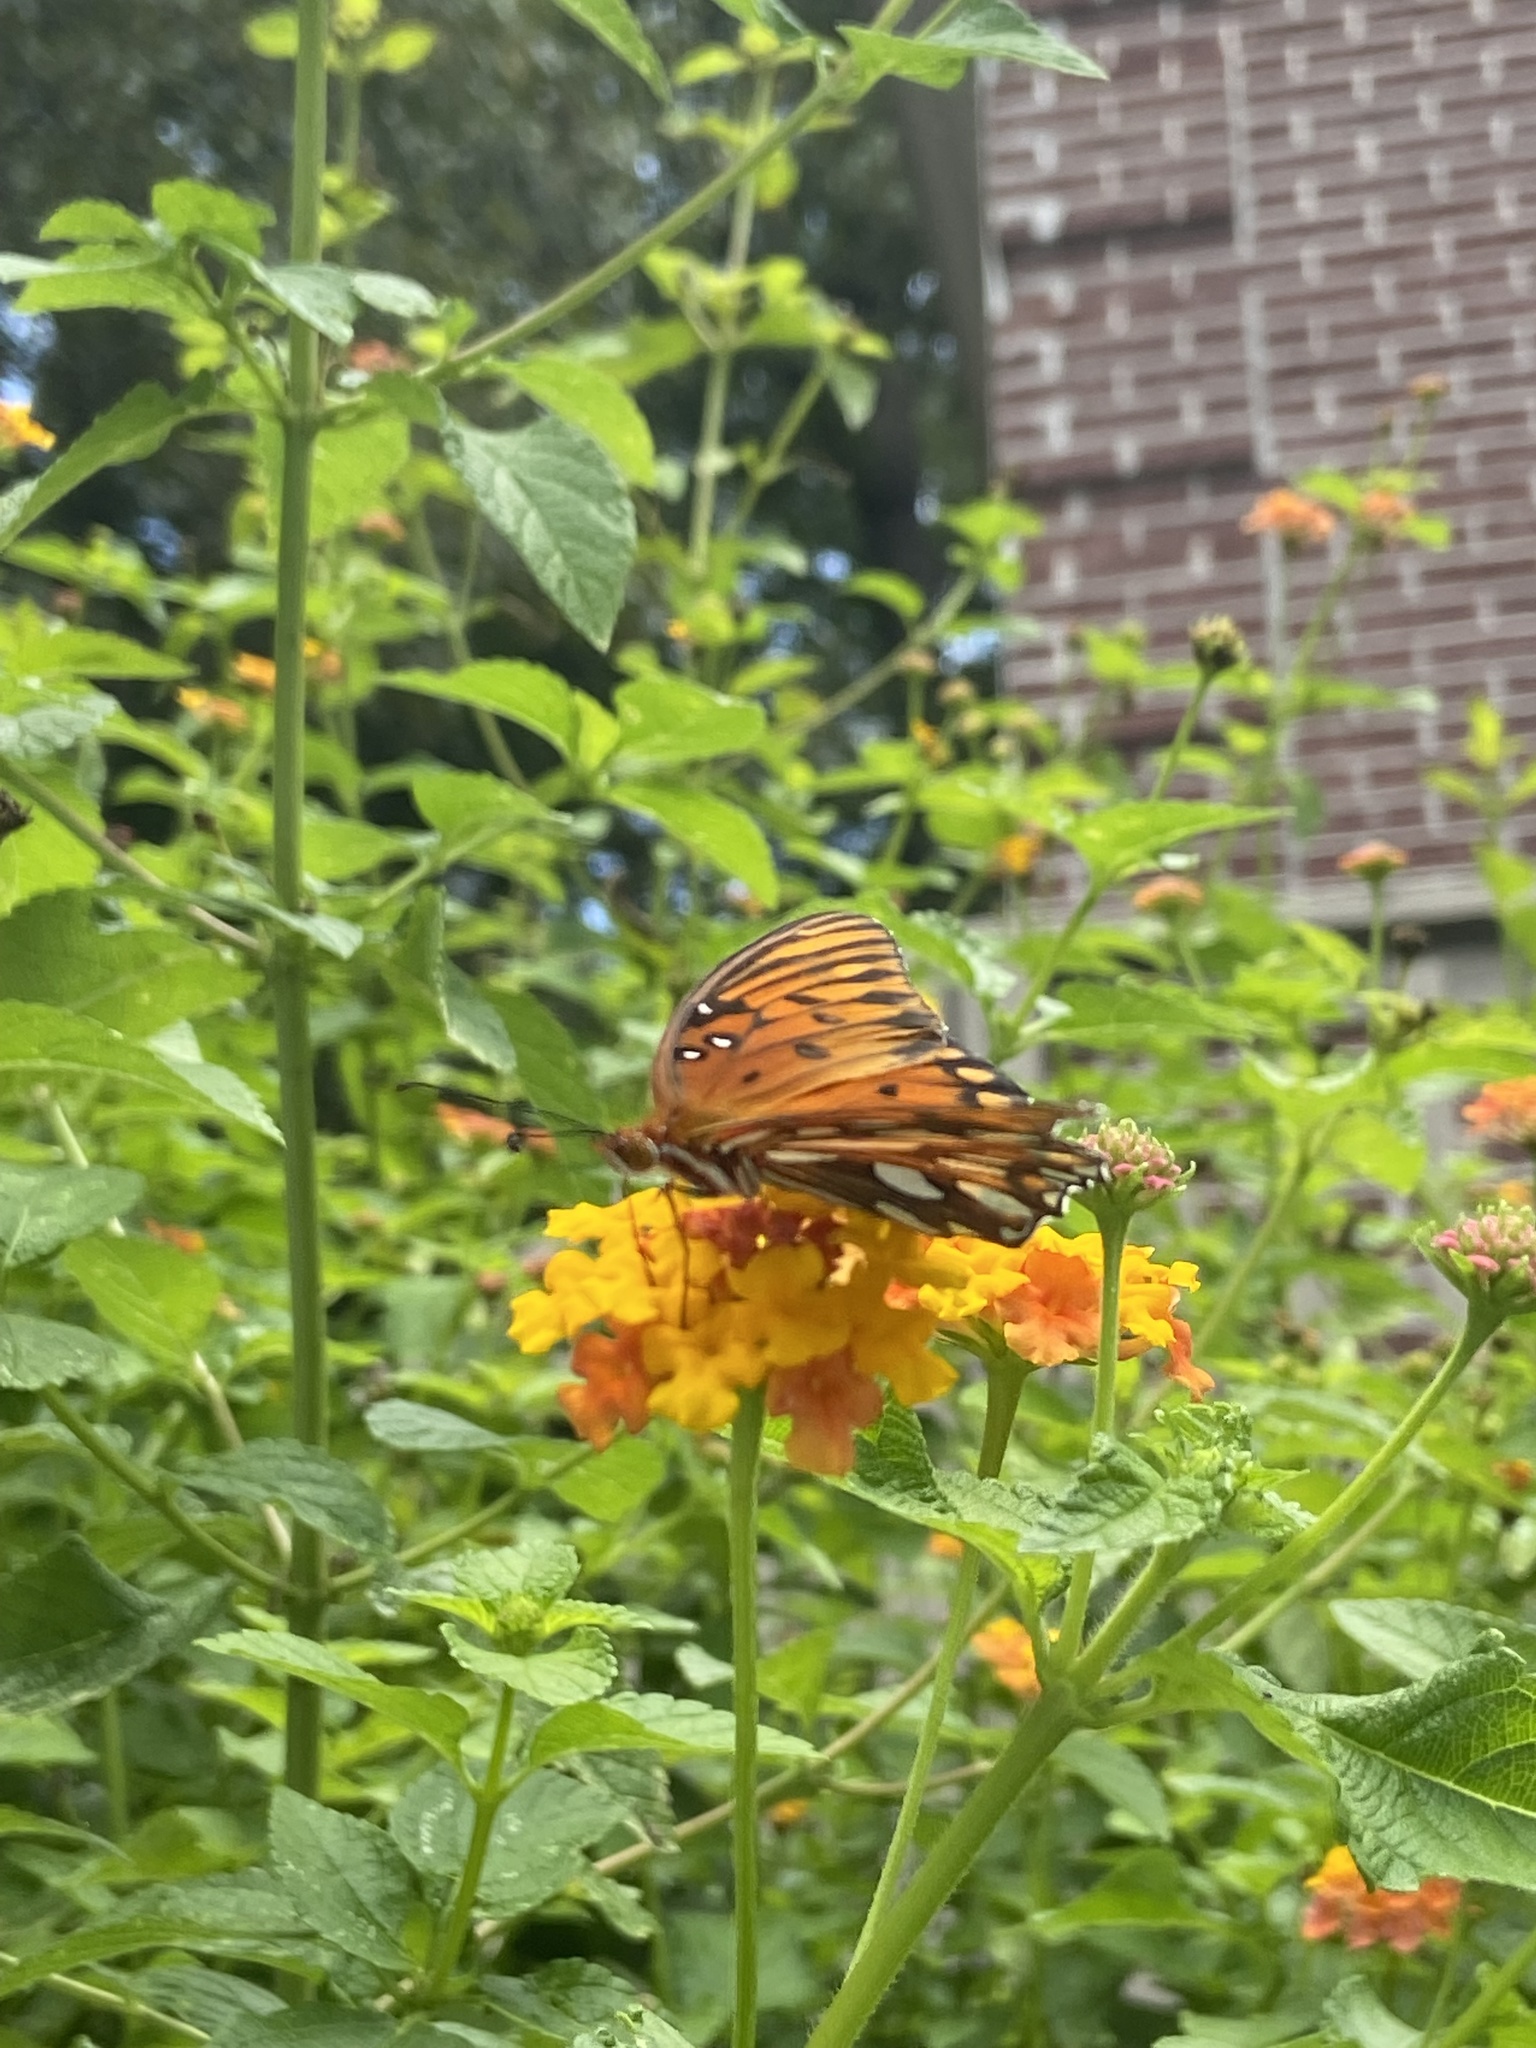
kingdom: Animalia
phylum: Arthropoda
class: Insecta
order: Lepidoptera
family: Nymphalidae
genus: Dione
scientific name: Dione vanillae
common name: Gulf fritillary
